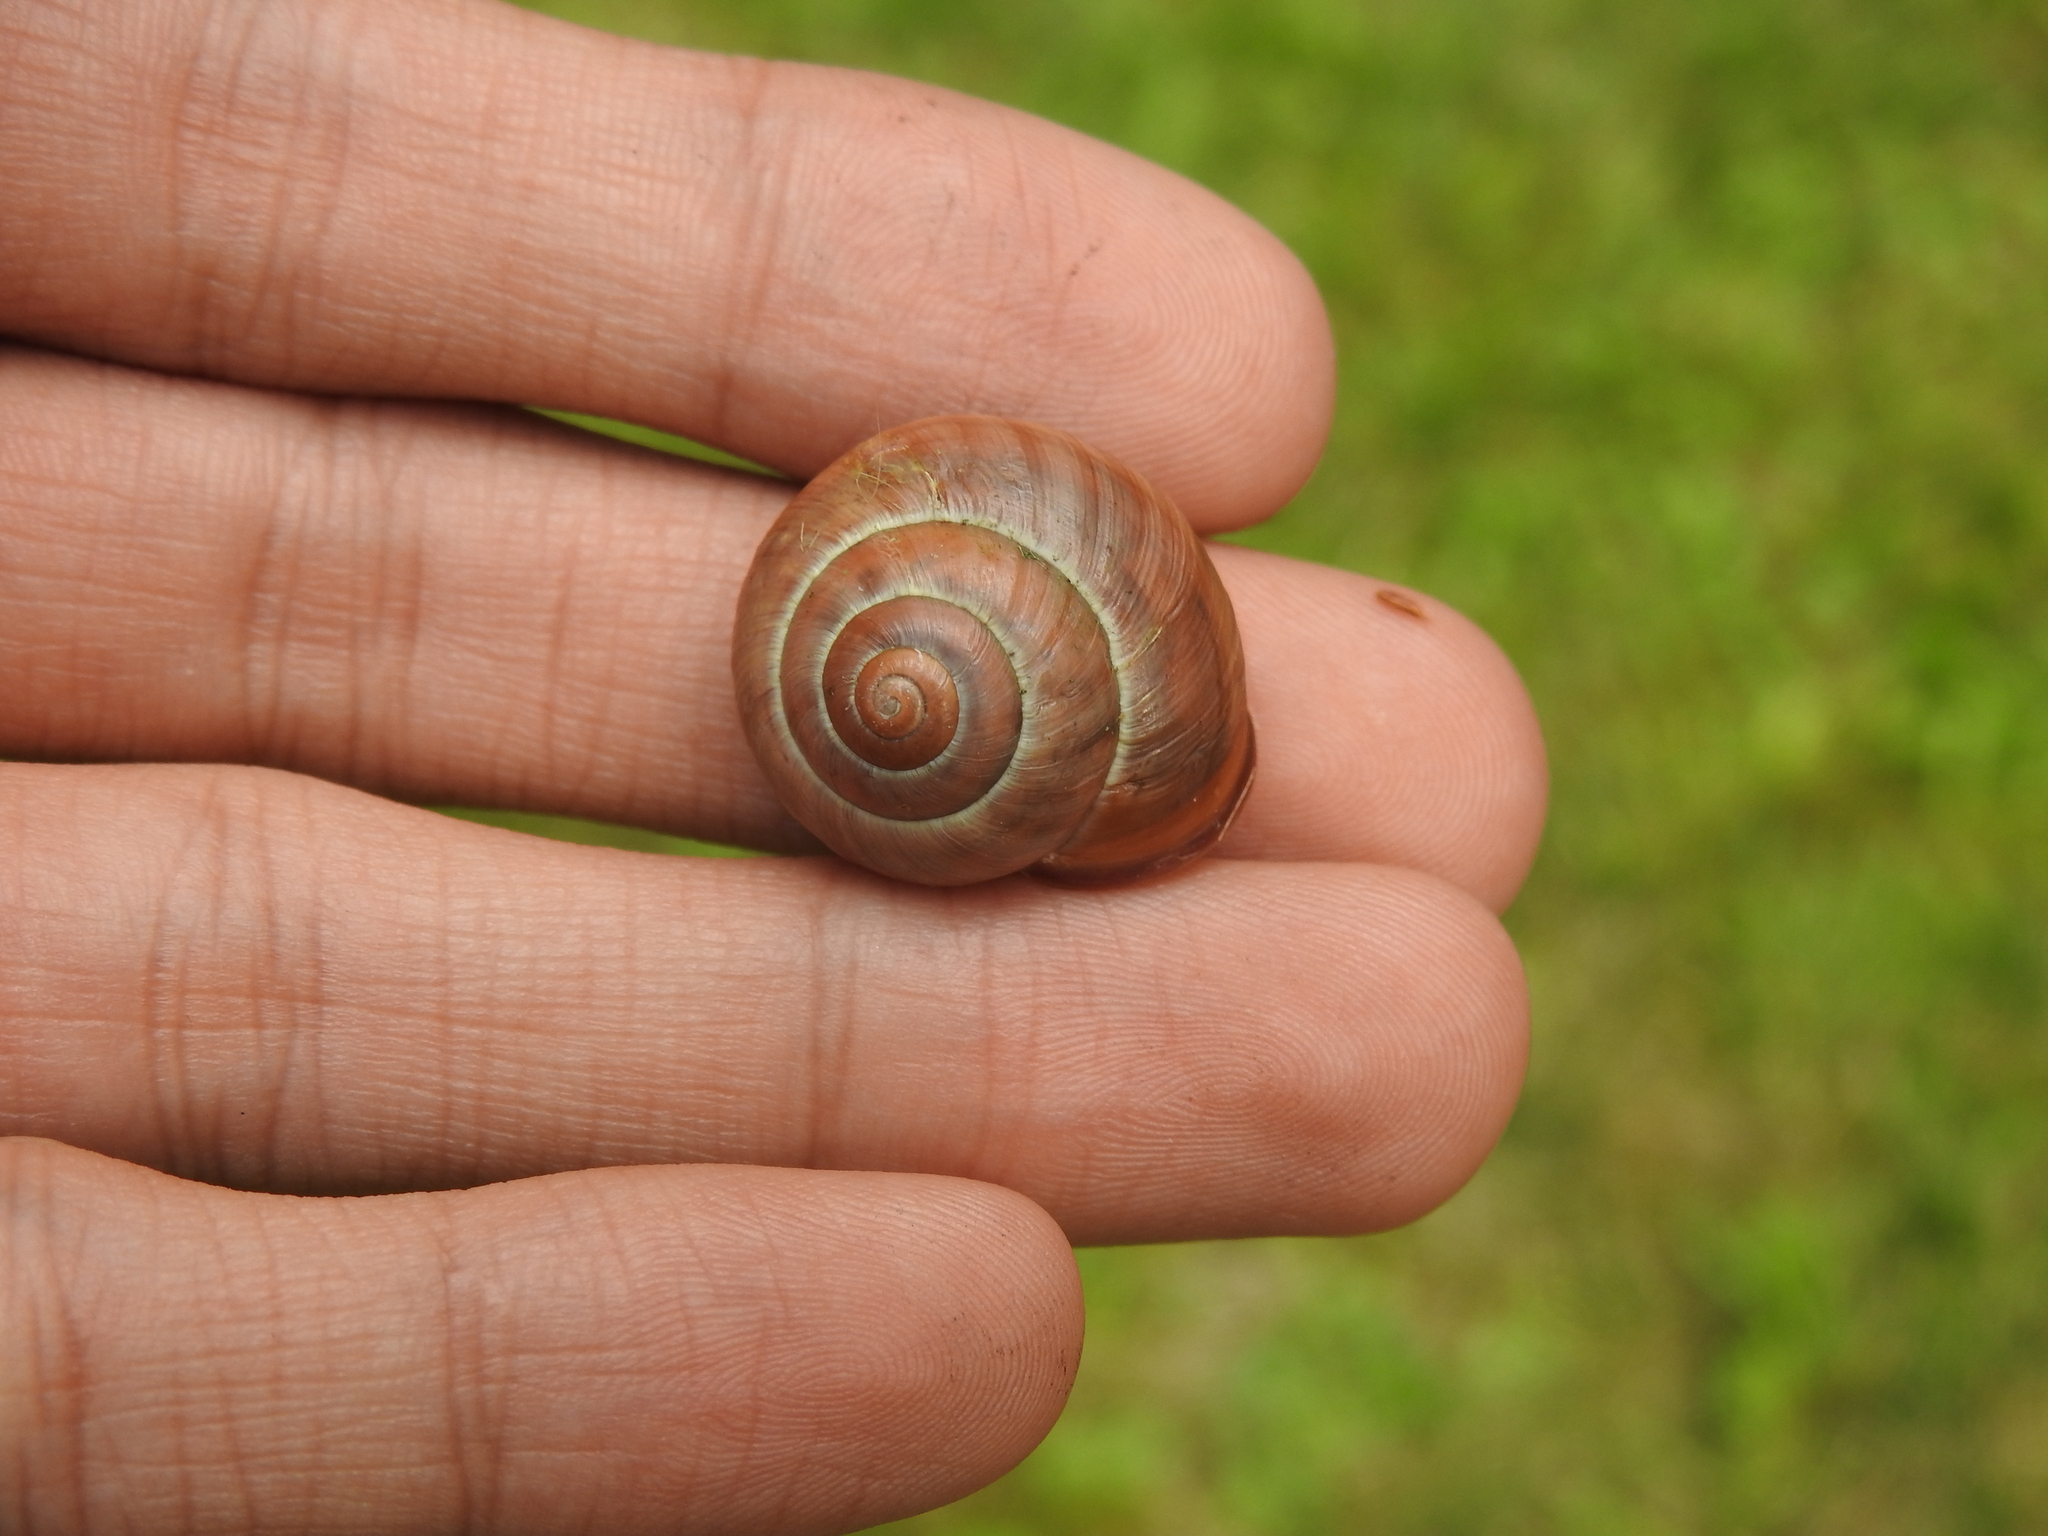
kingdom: Animalia
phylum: Mollusca
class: Gastropoda
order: Stylommatophora
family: Helicidae
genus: Cepaea
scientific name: Cepaea nemoralis
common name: Grovesnail
